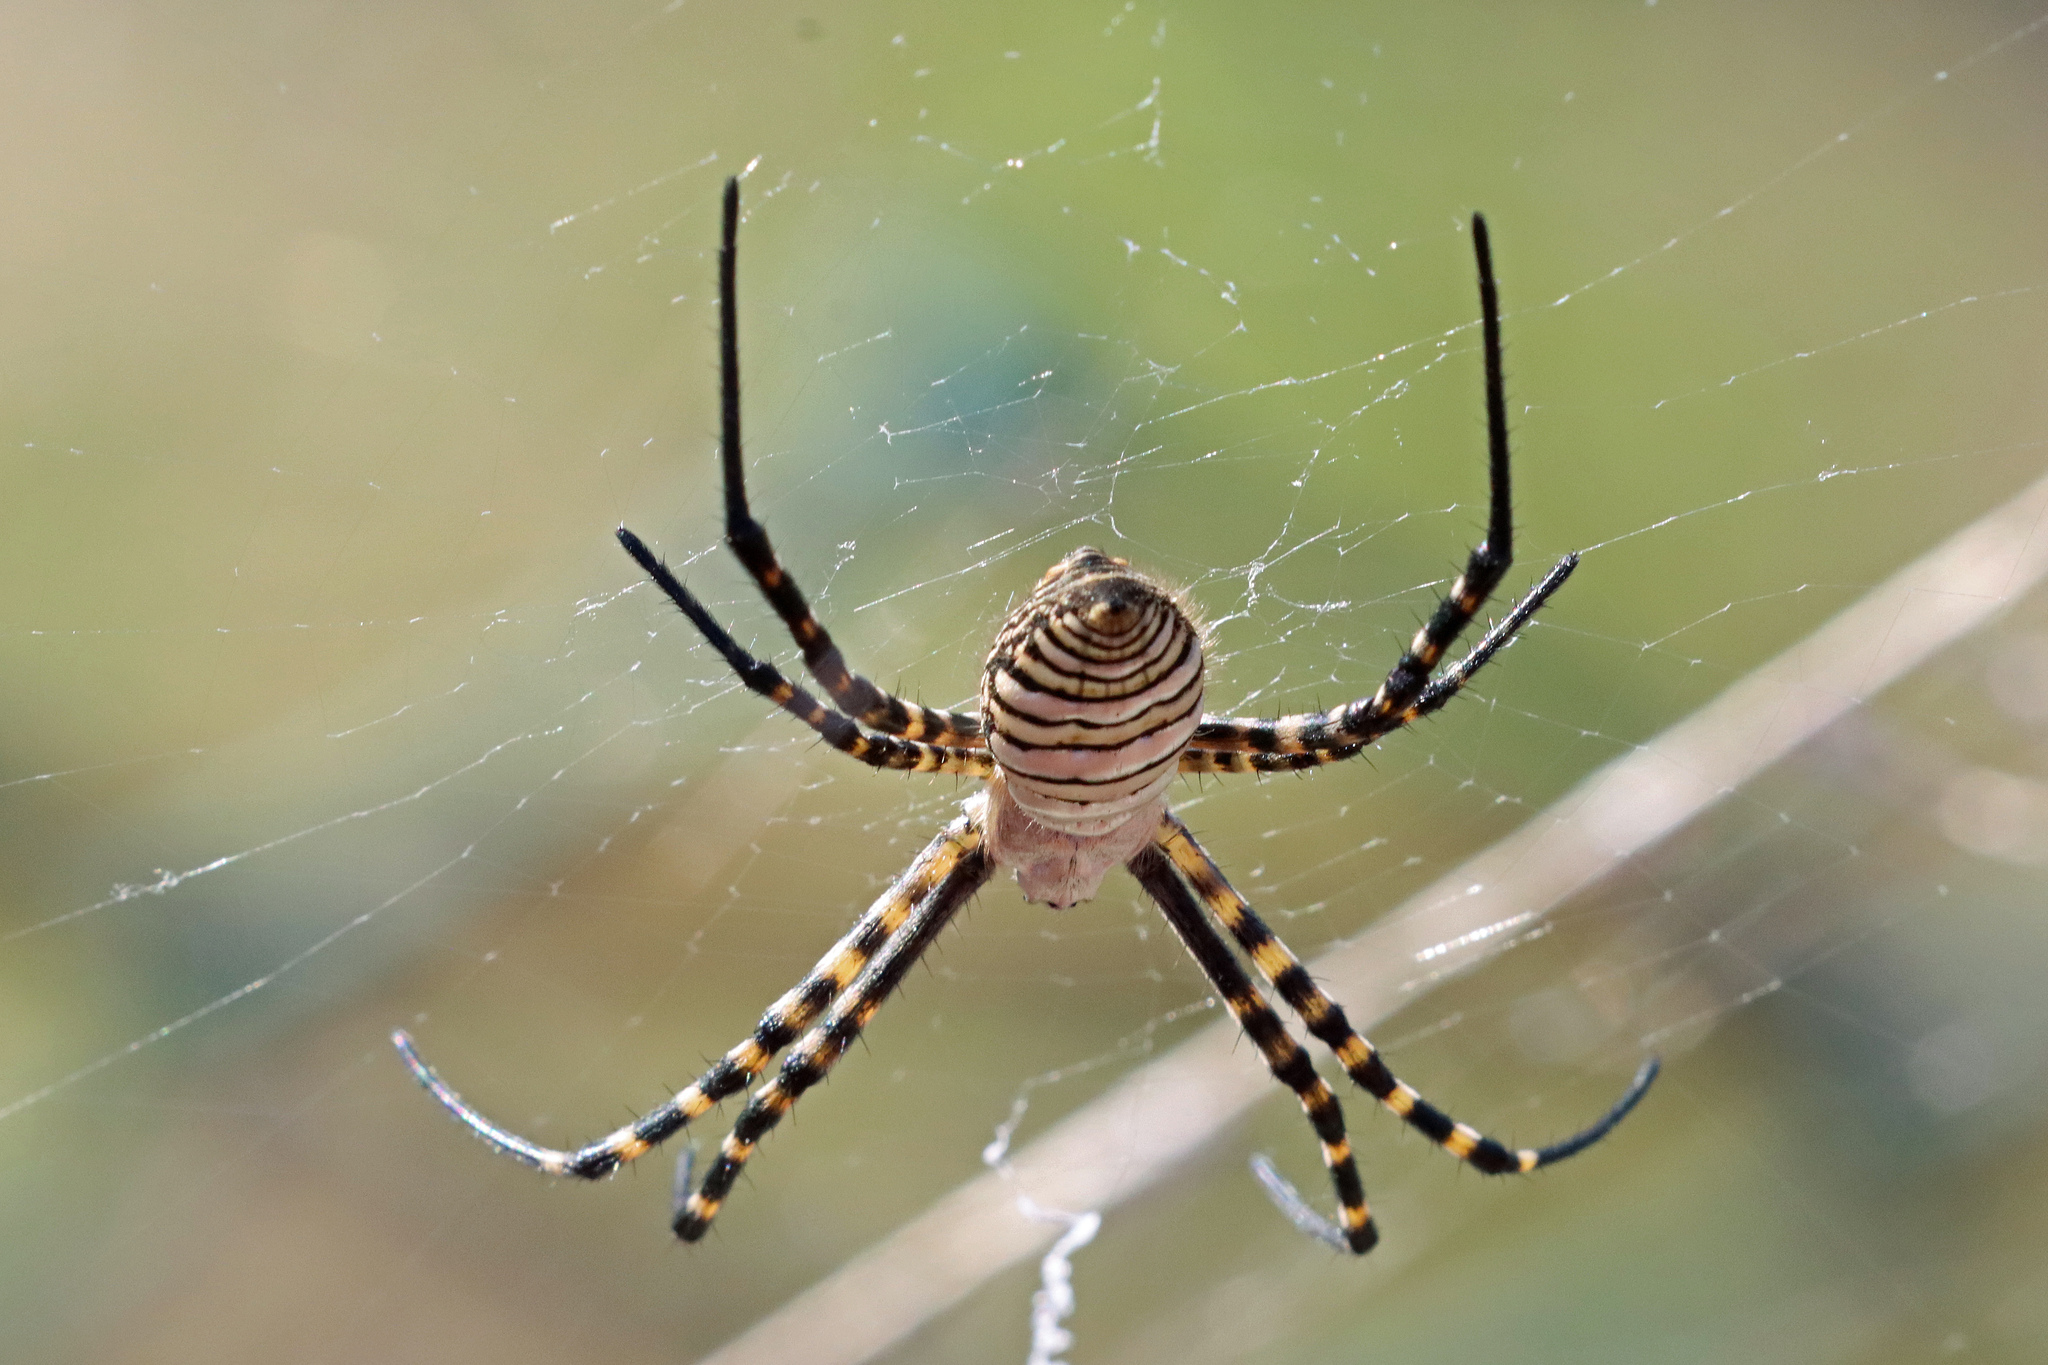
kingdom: Animalia
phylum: Arthropoda
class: Arachnida
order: Araneae
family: Araneidae
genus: Argiope
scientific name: Argiope trifasciata
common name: Banded garden spider
